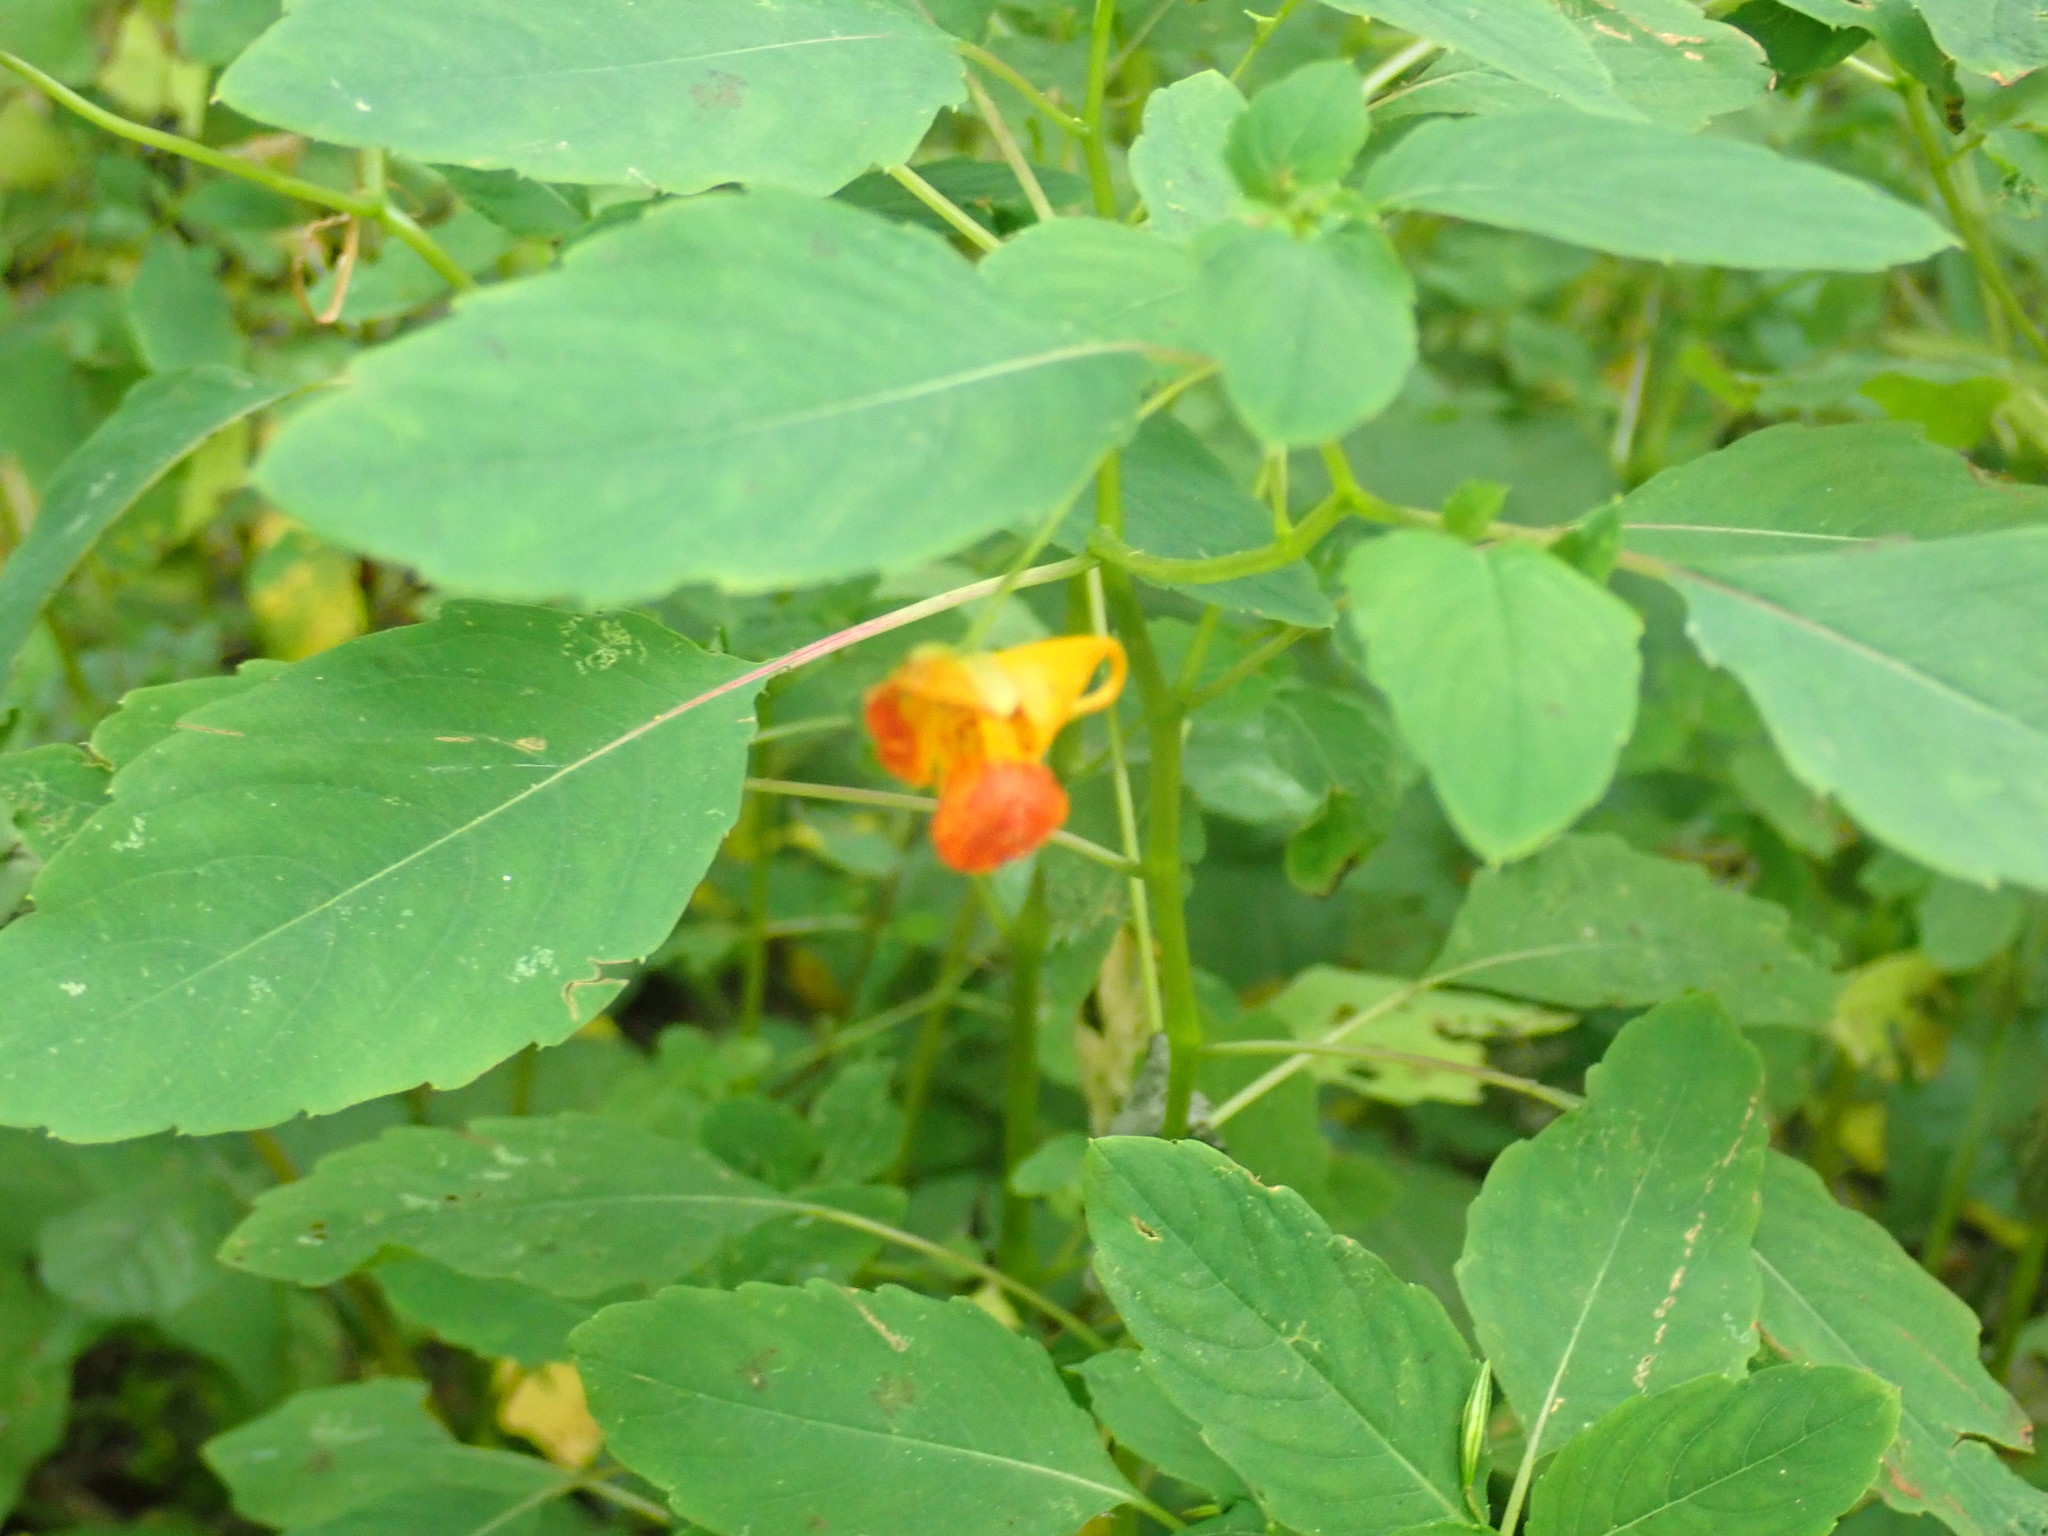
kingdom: Plantae
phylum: Tracheophyta
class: Magnoliopsida
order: Ericales
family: Balsaminaceae
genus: Impatiens
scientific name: Impatiens capensis
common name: Orange balsam
